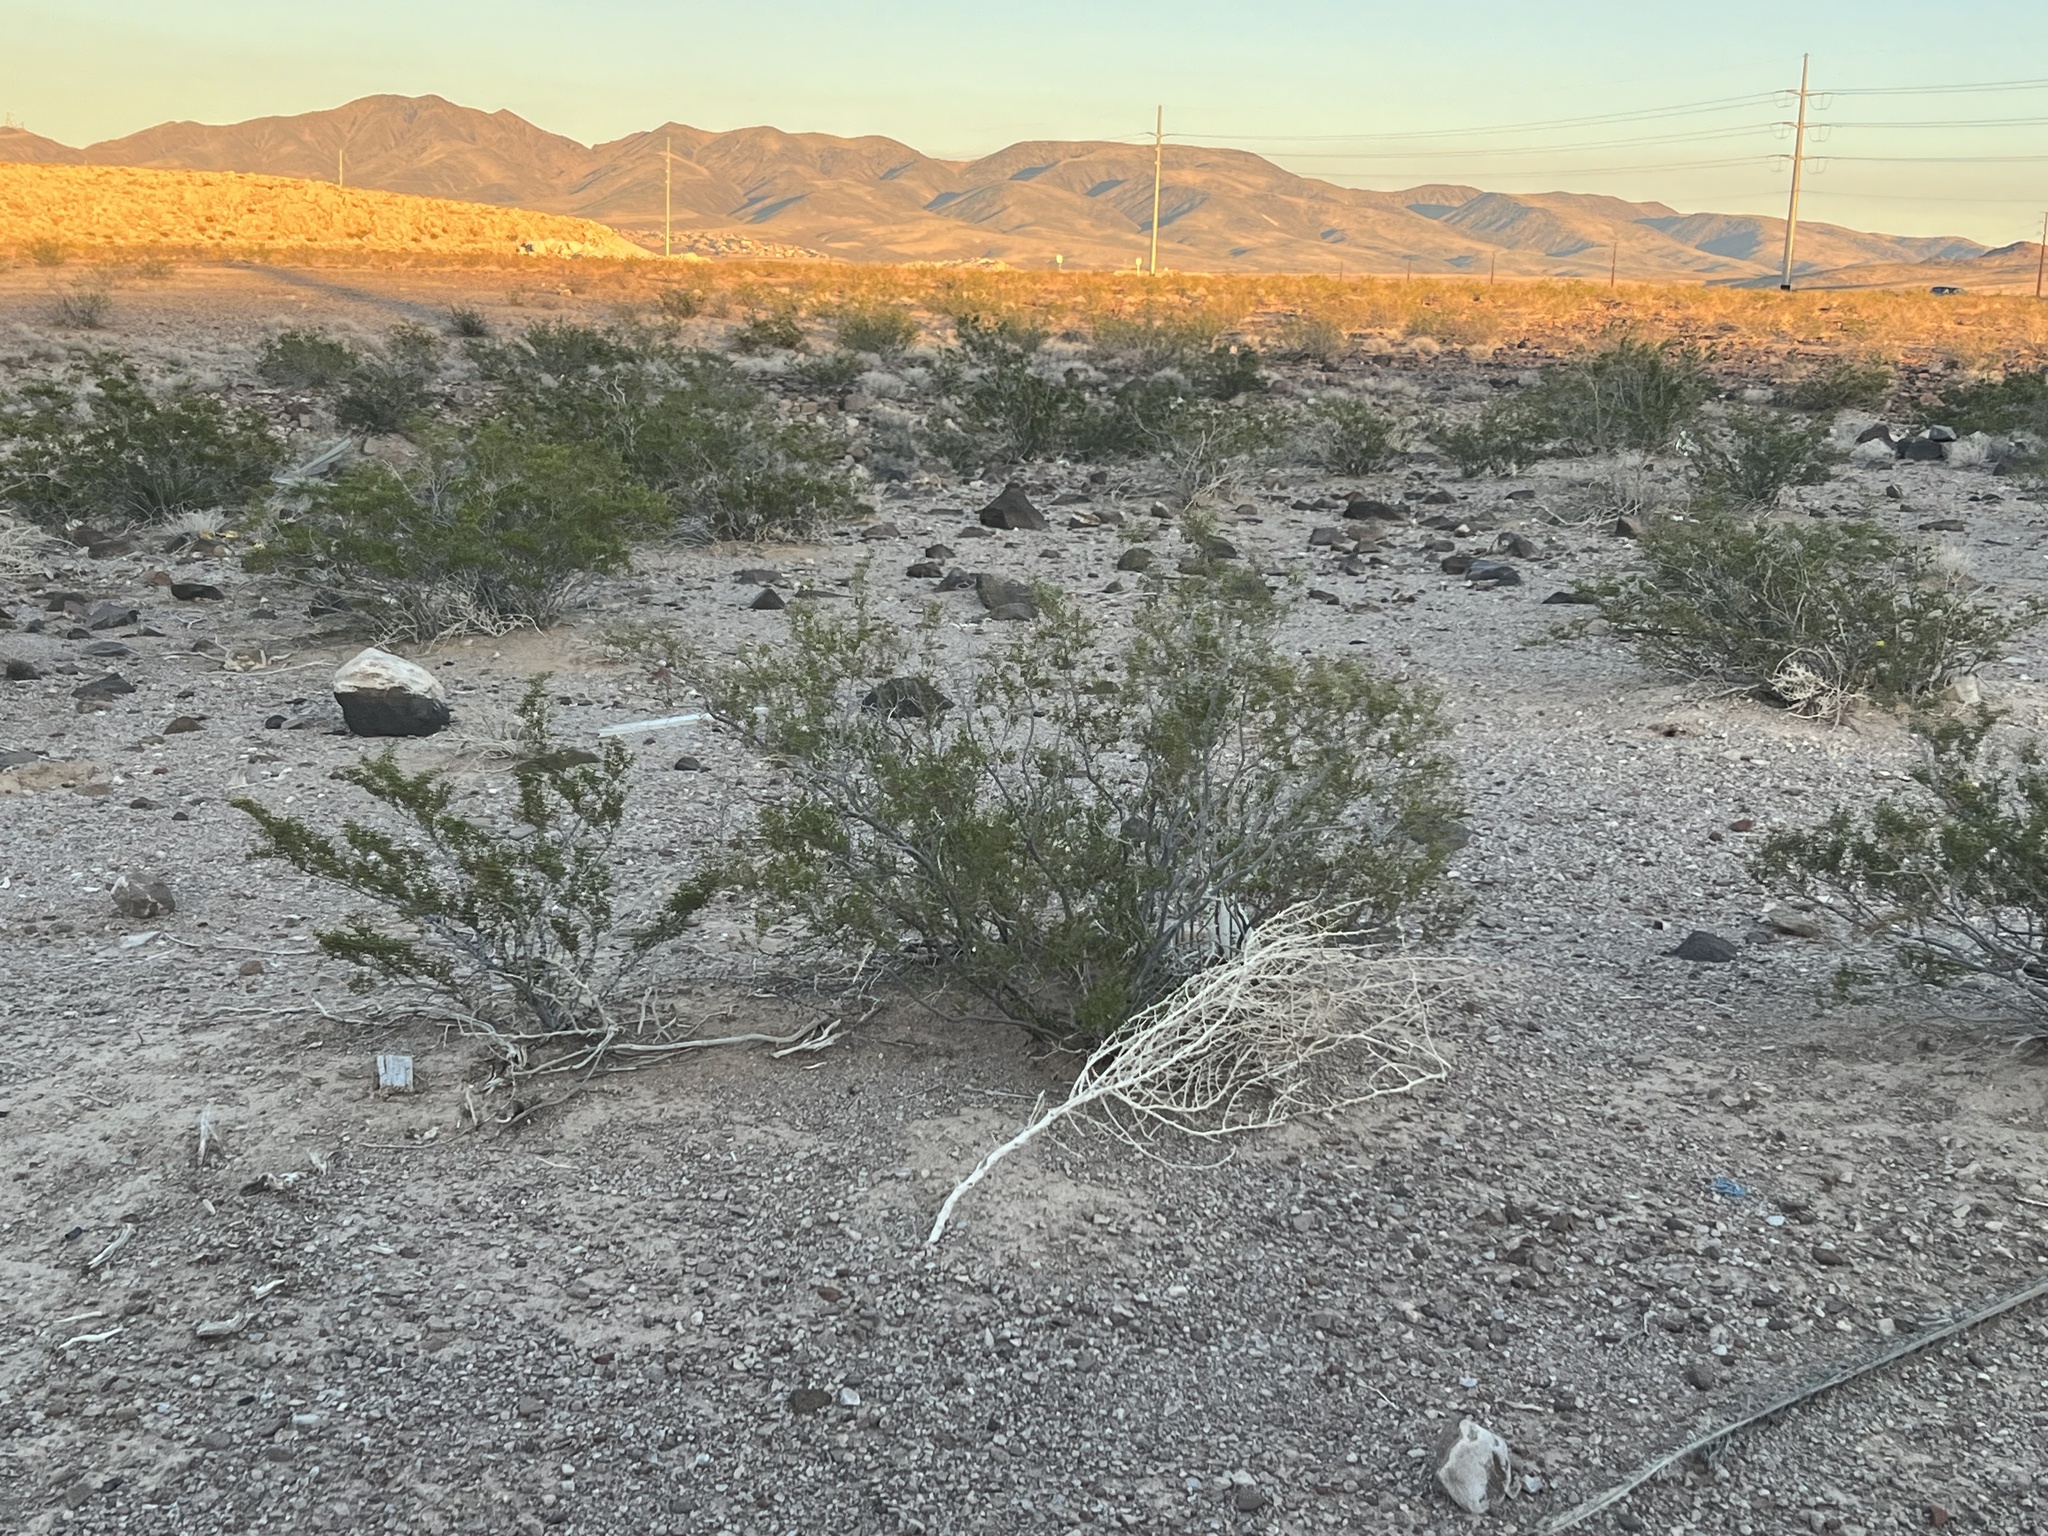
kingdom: Plantae
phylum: Tracheophyta
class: Magnoliopsida
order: Zygophyllales
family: Zygophyllaceae
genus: Larrea
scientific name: Larrea tridentata
